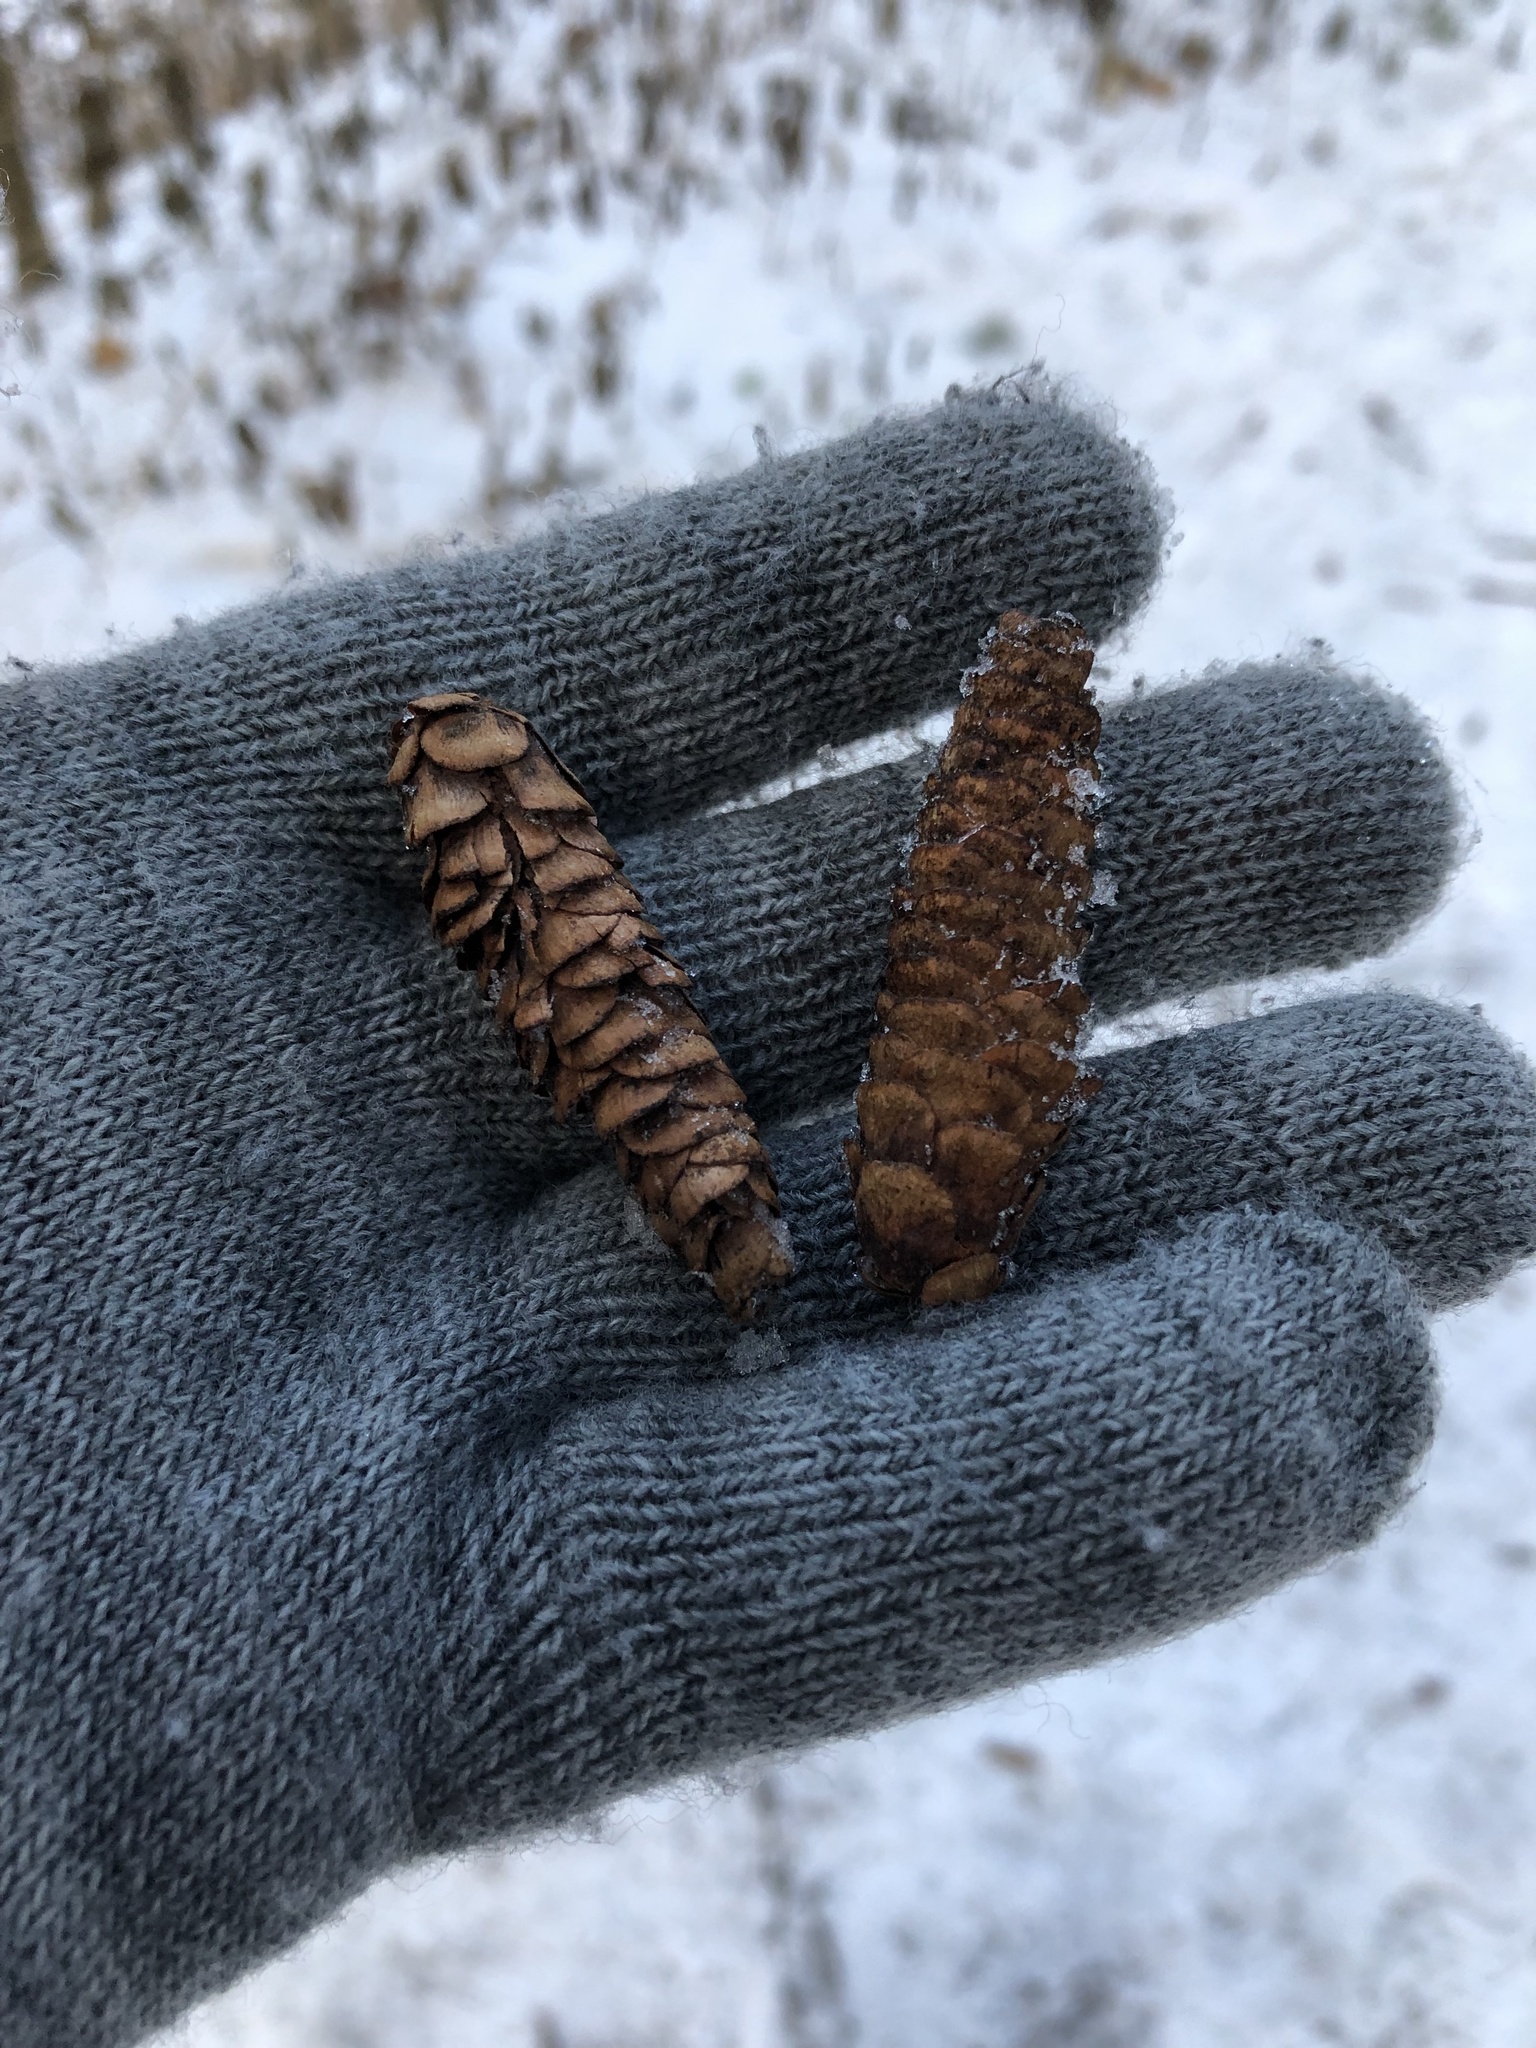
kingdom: Plantae
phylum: Tracheophyta
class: Pinopsida
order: Pinales
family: Pinaceae
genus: Picea
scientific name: Picea glauca
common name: White spruce
